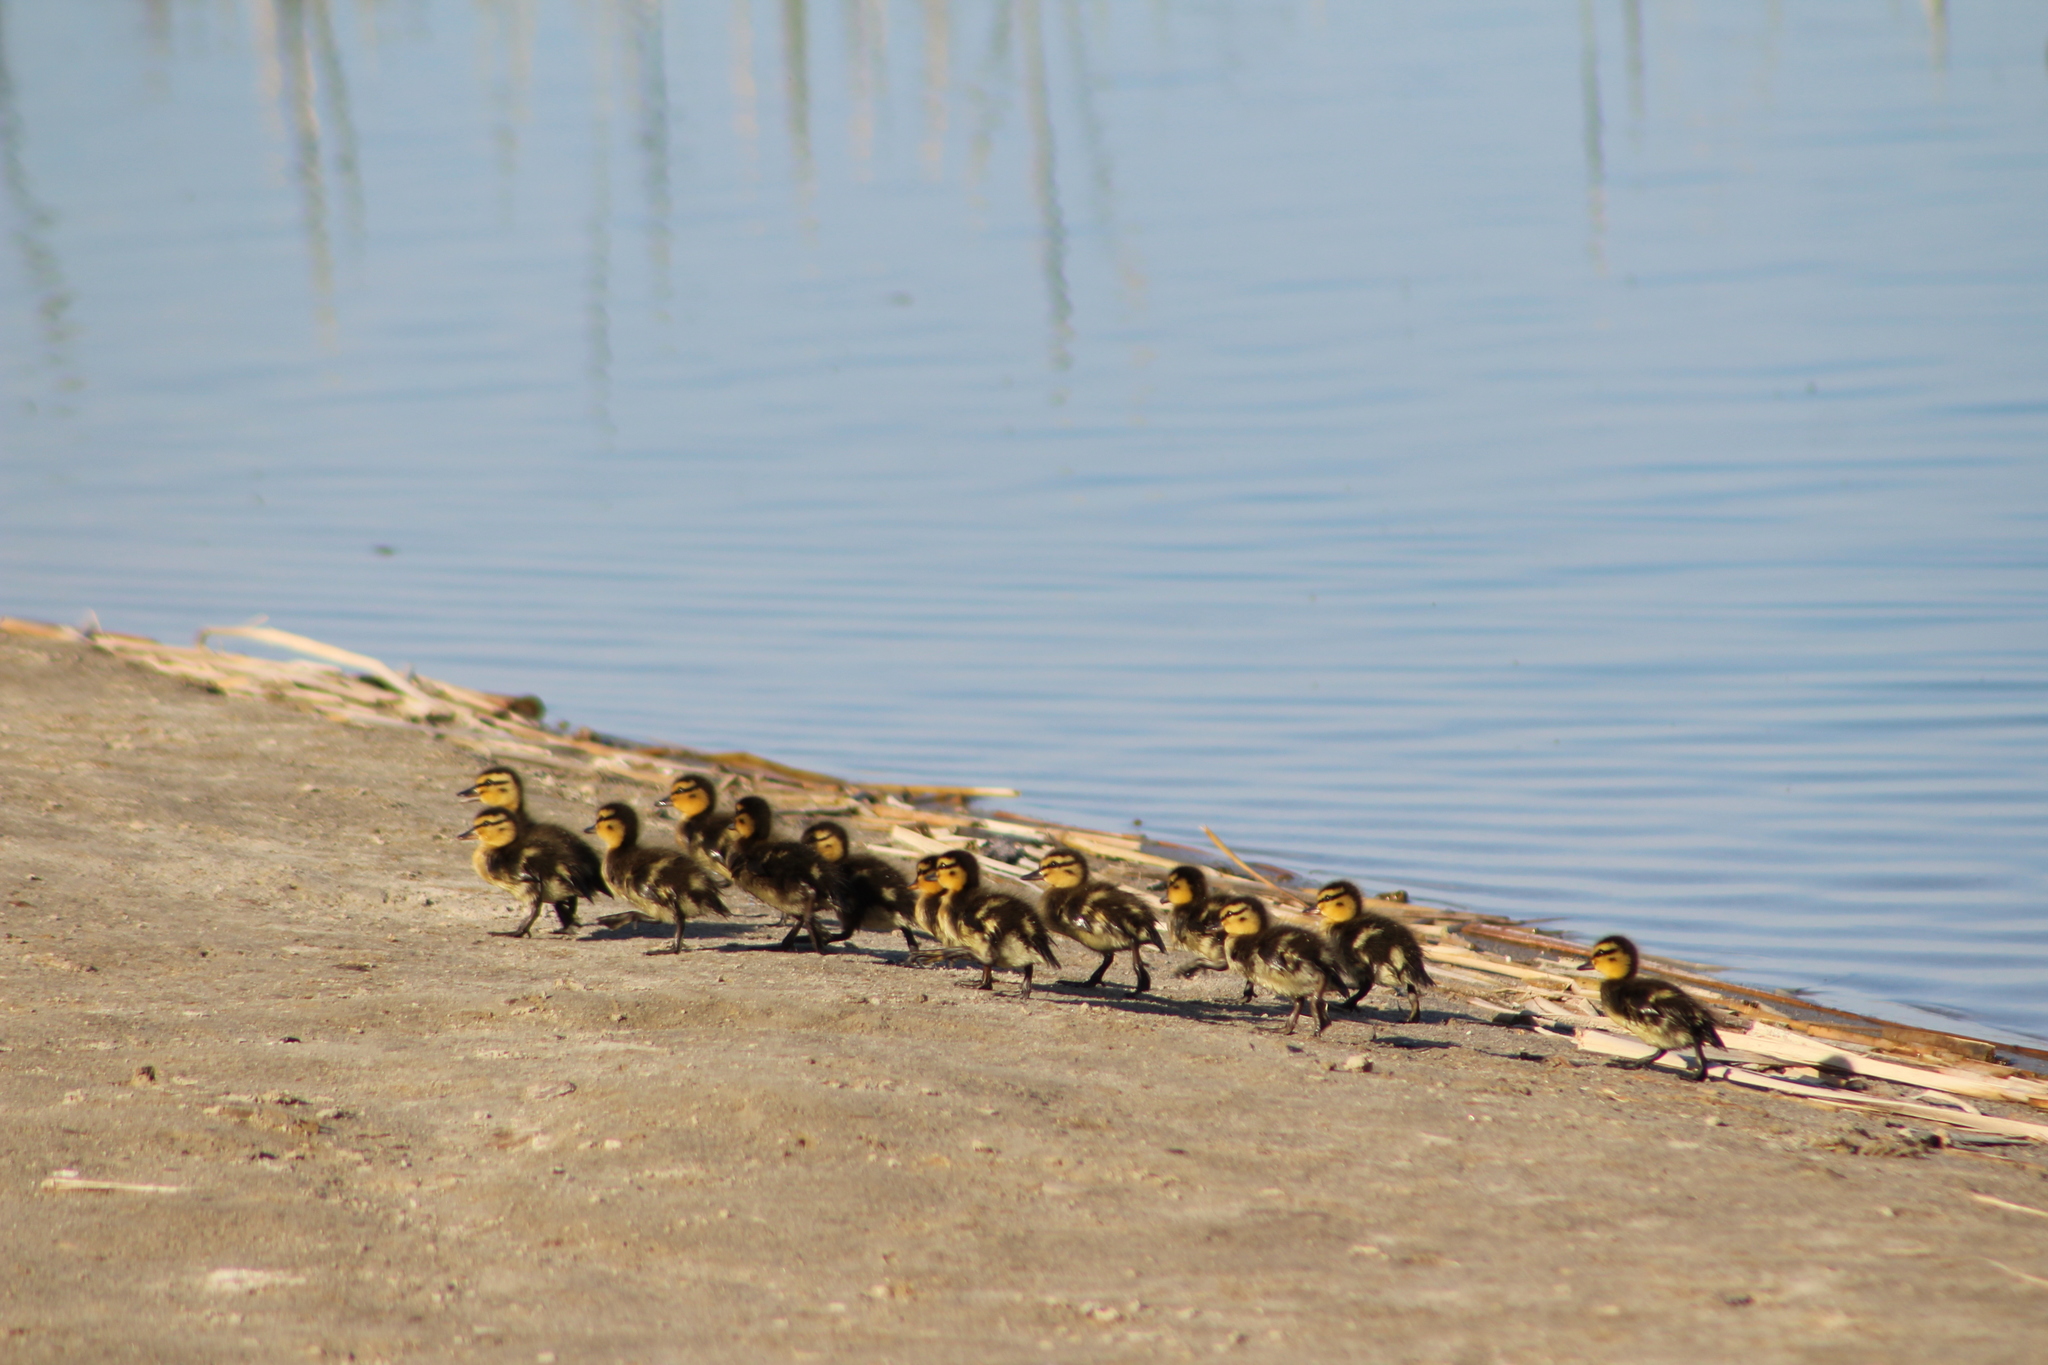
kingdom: Animalia
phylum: Chordata
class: Aves
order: Anseriformes
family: Anatidae
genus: Anas
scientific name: Anas platyrhynchos
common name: Mallard
